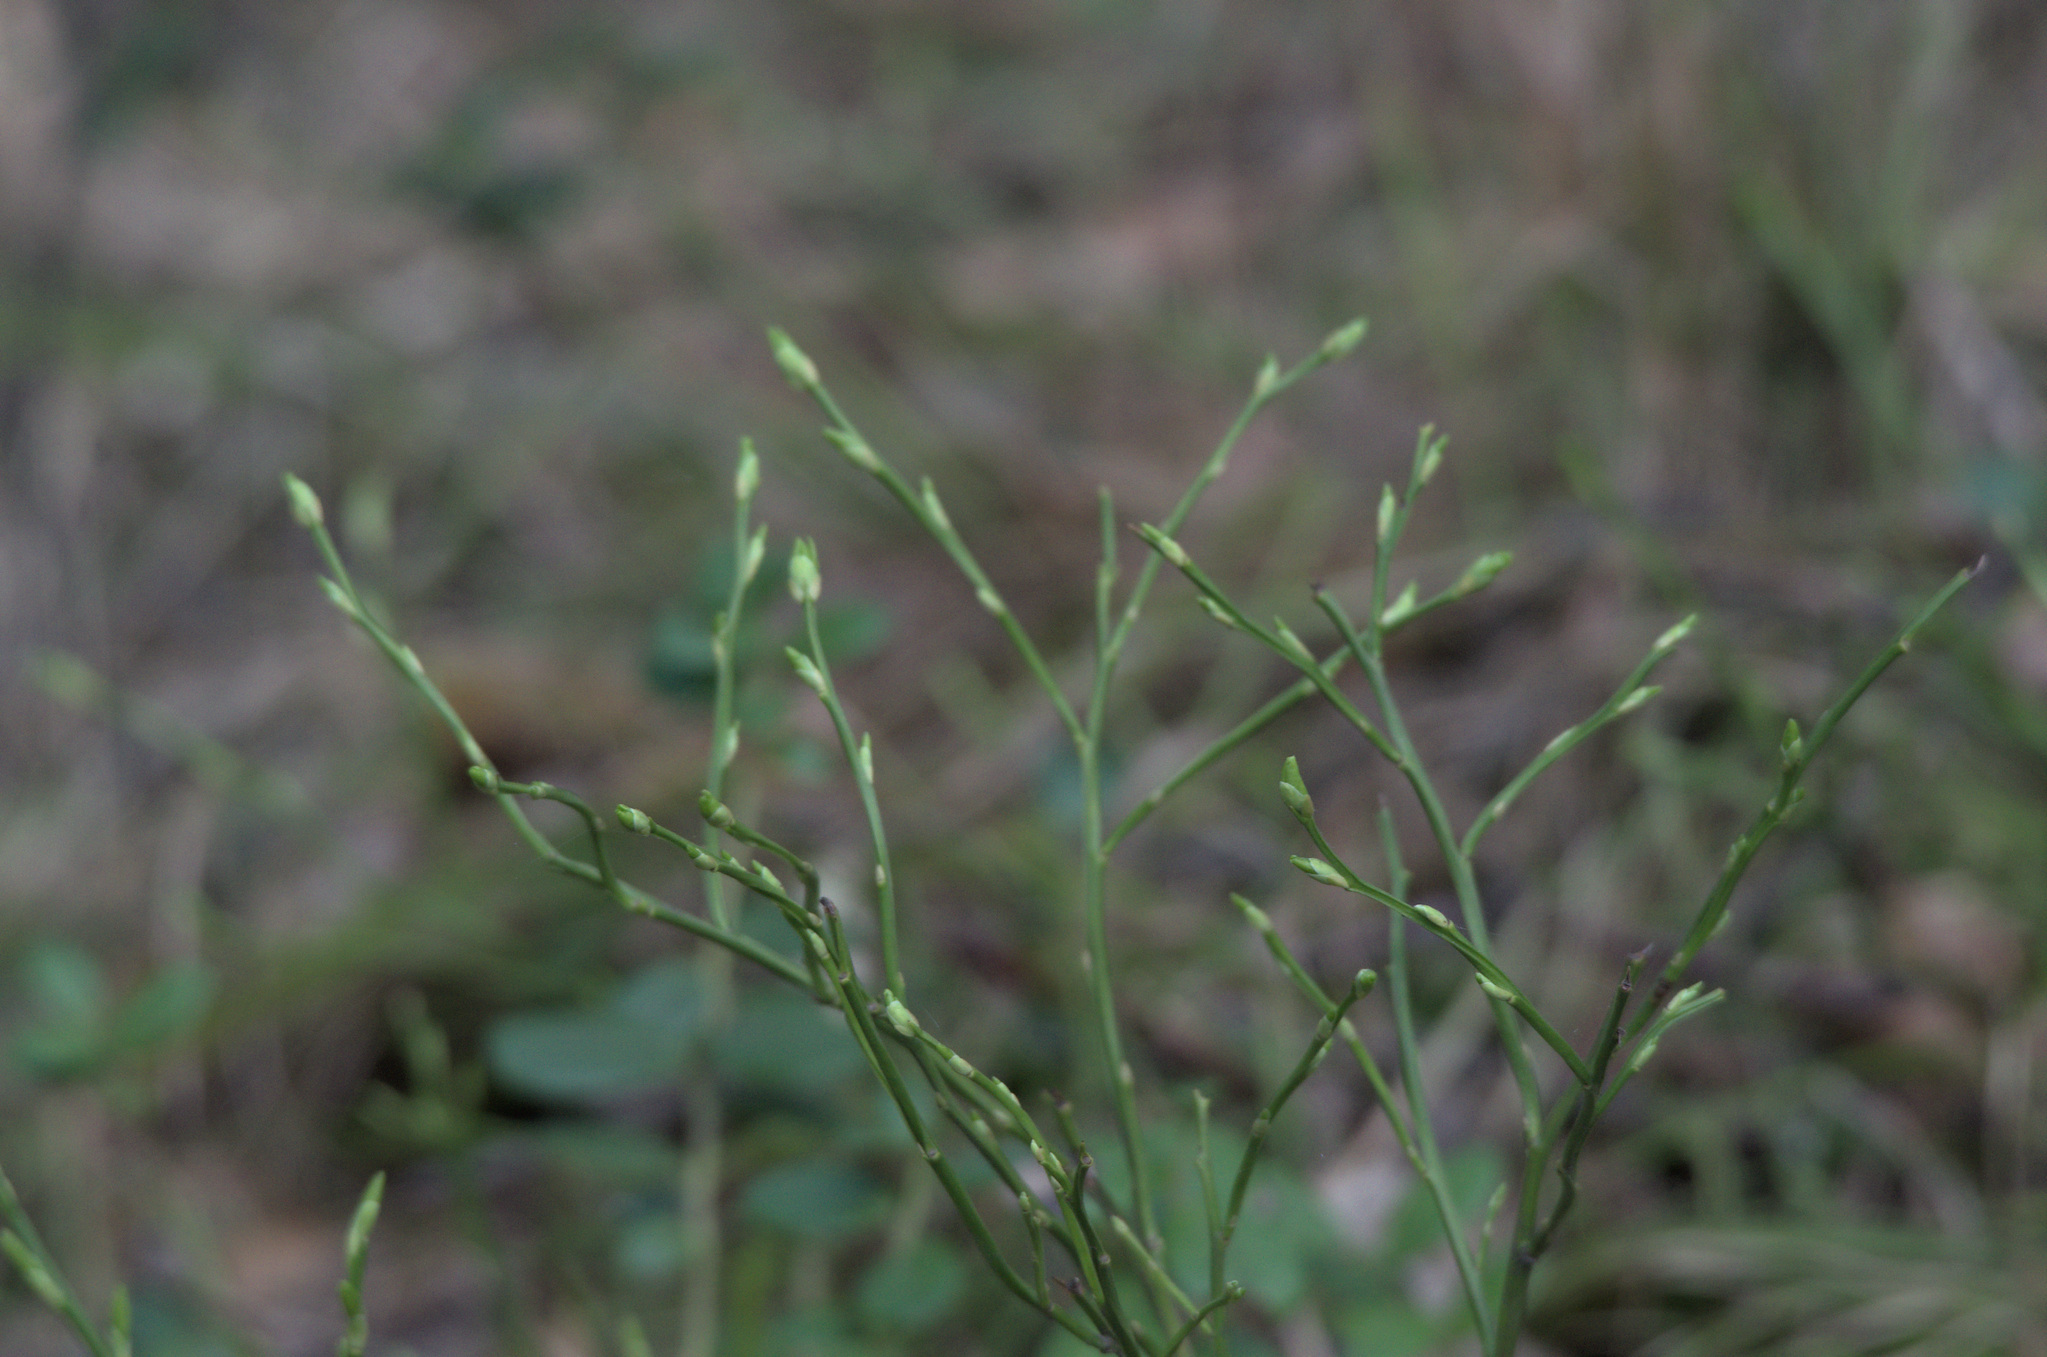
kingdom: Plantae
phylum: Tracheophyta
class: Magnoliopsida
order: Ericales
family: Ericaceae
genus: Vaccinium
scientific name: Vaccinium myrtillus
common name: Bilberry
